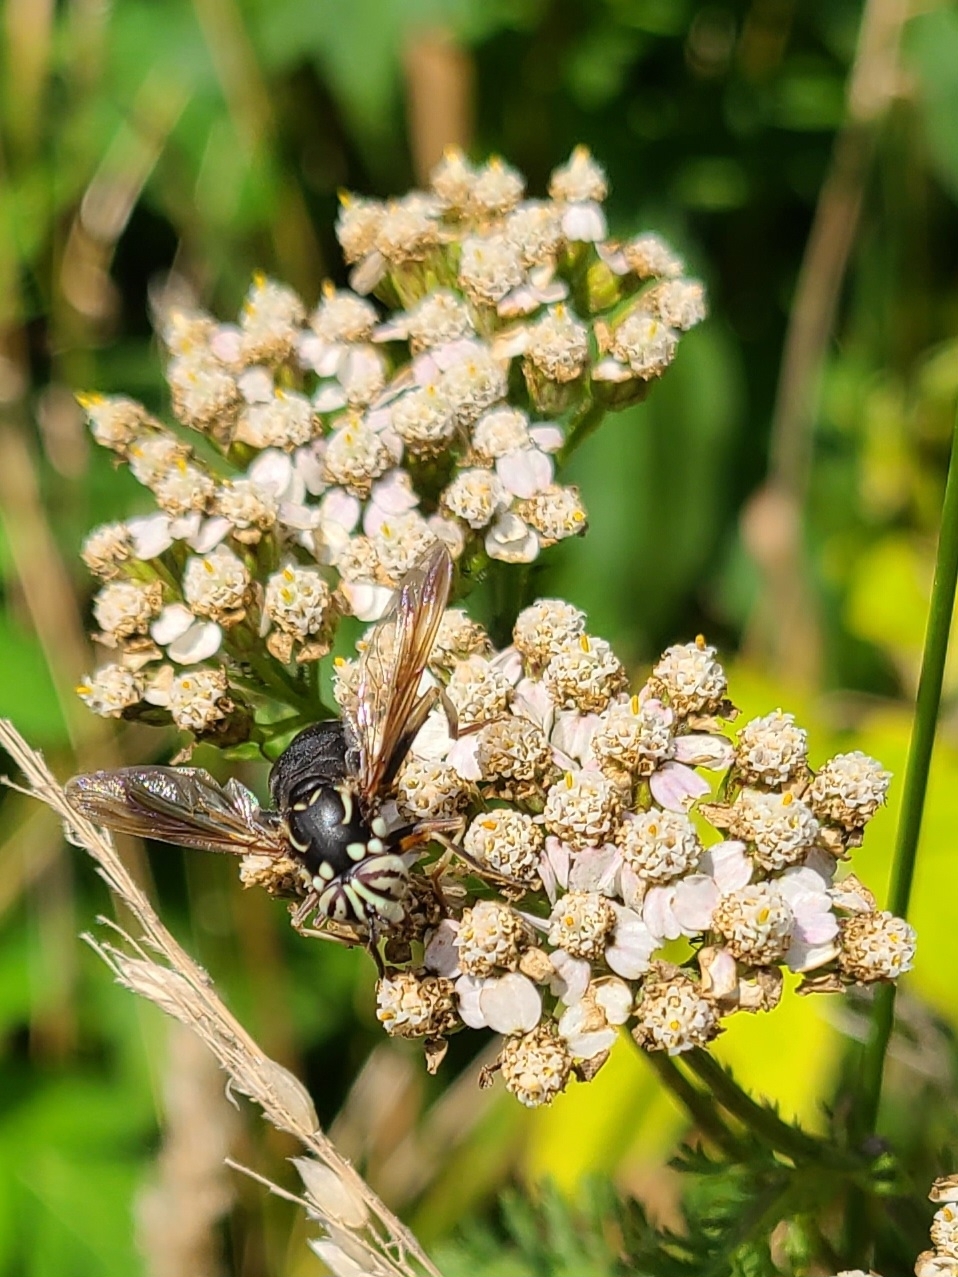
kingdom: Animalia
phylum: Arthropoda
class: Insecta
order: Diptera
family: Syrphidae
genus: Spilomyia
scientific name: Spilomyia fusca
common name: Bald-faced hornet fly
